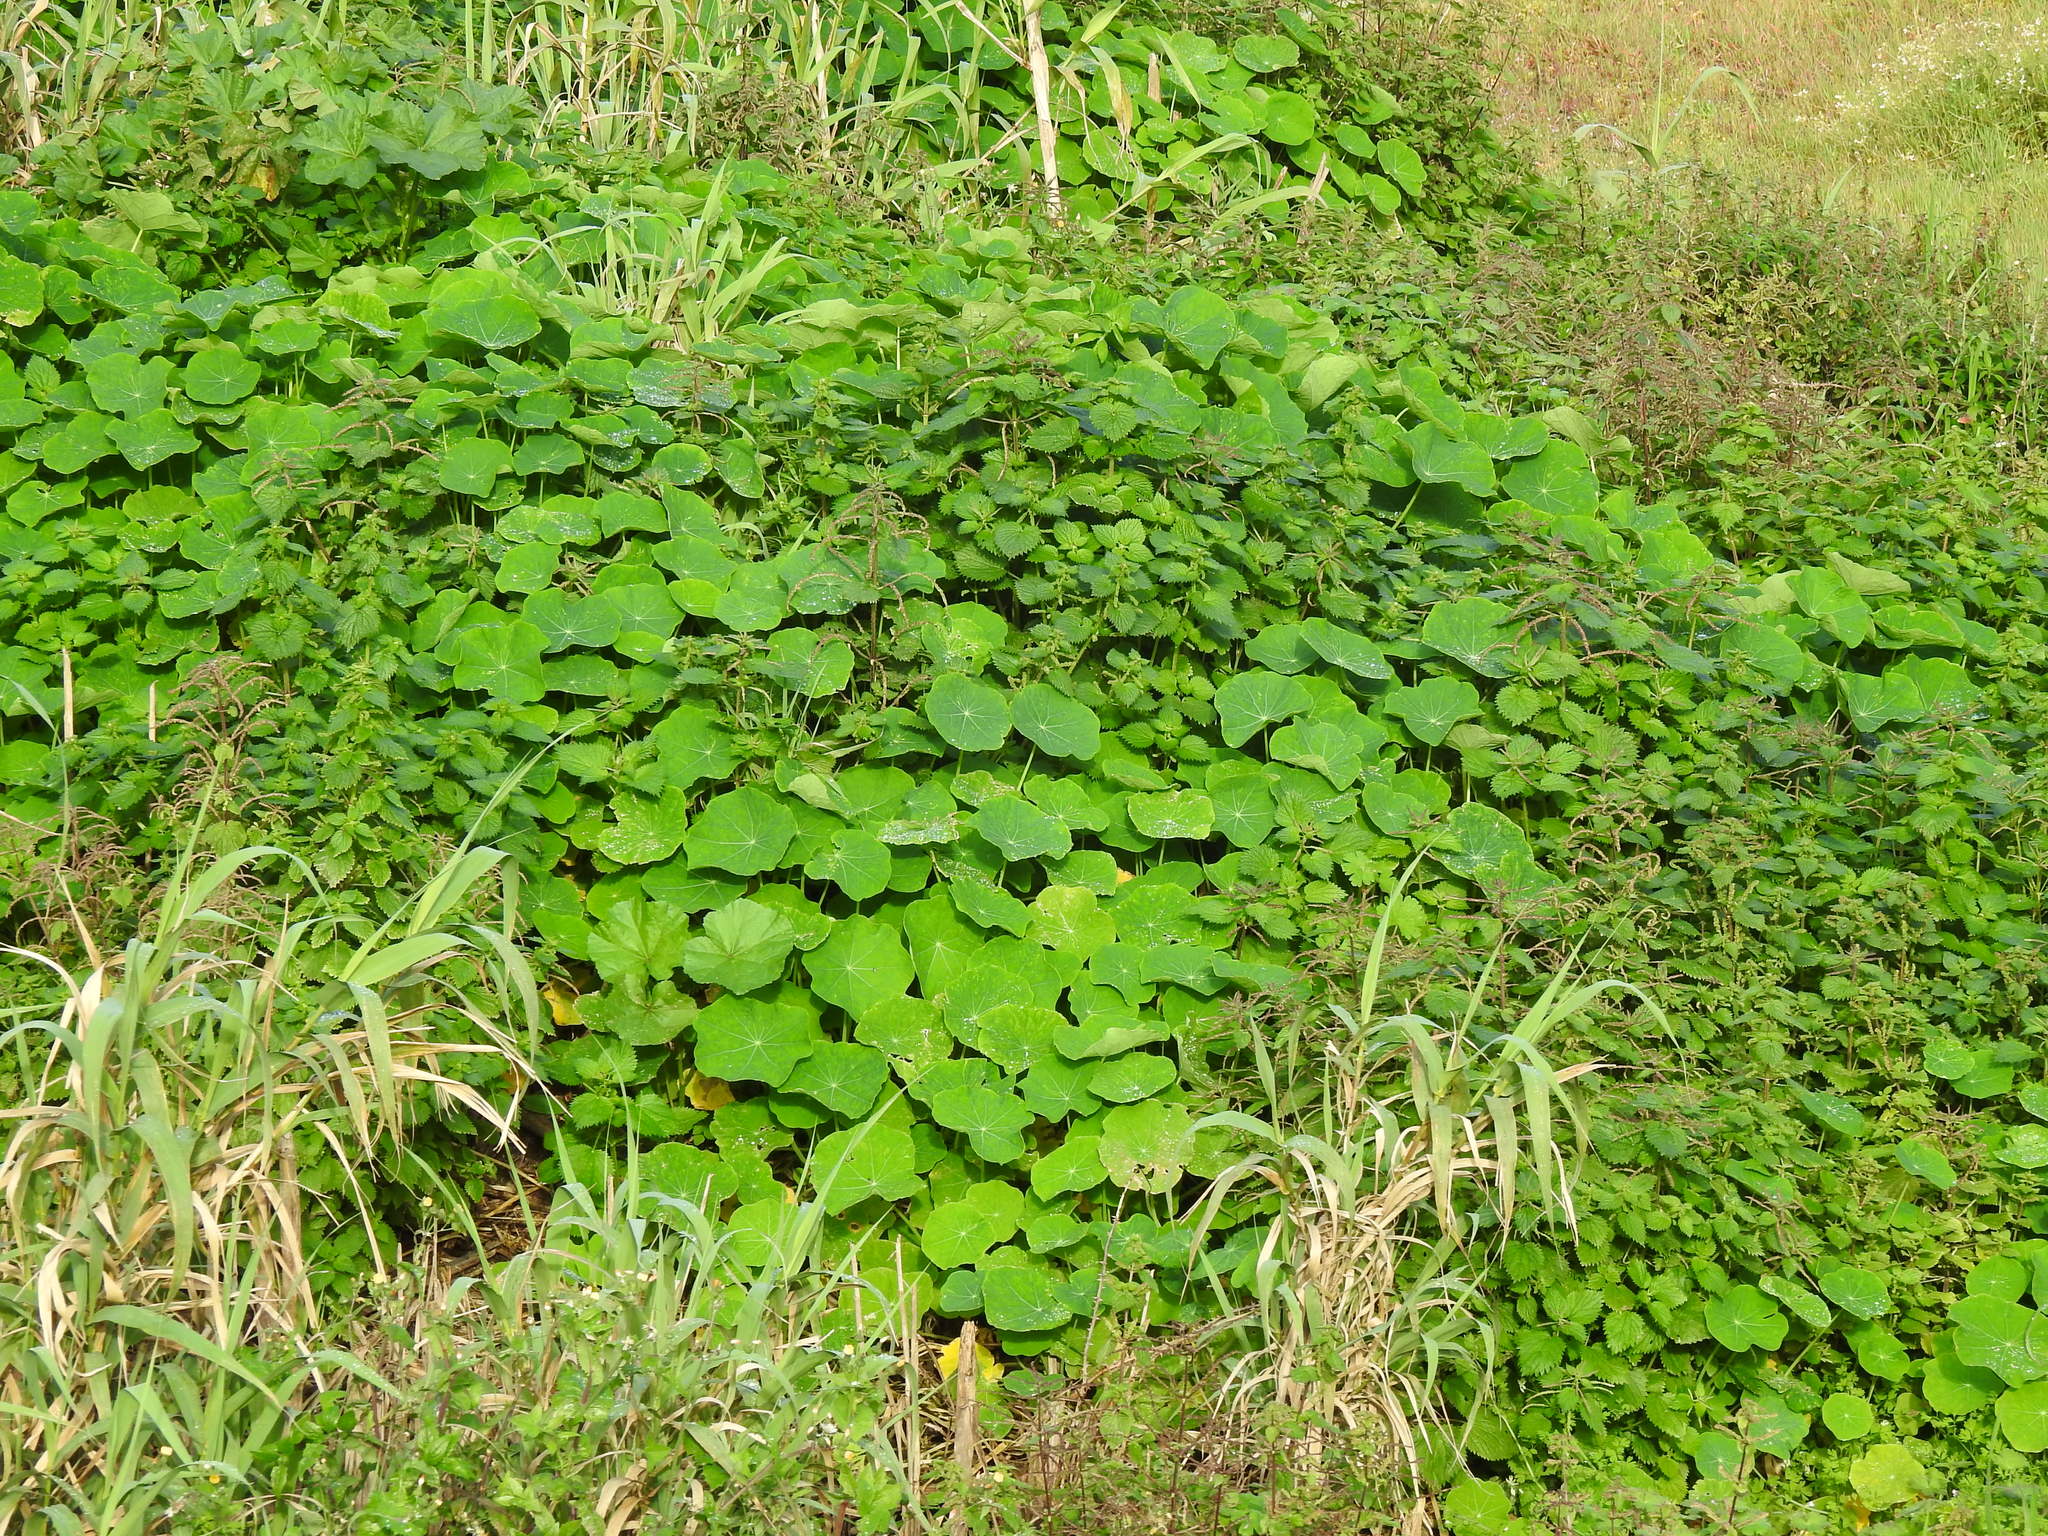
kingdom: Plantae
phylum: Tracheophyta
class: Magnoliopsida
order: Brassicales
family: Tropaeolaceae
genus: Tropaeolum
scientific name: Tropaeolum majus
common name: Nasturtium
